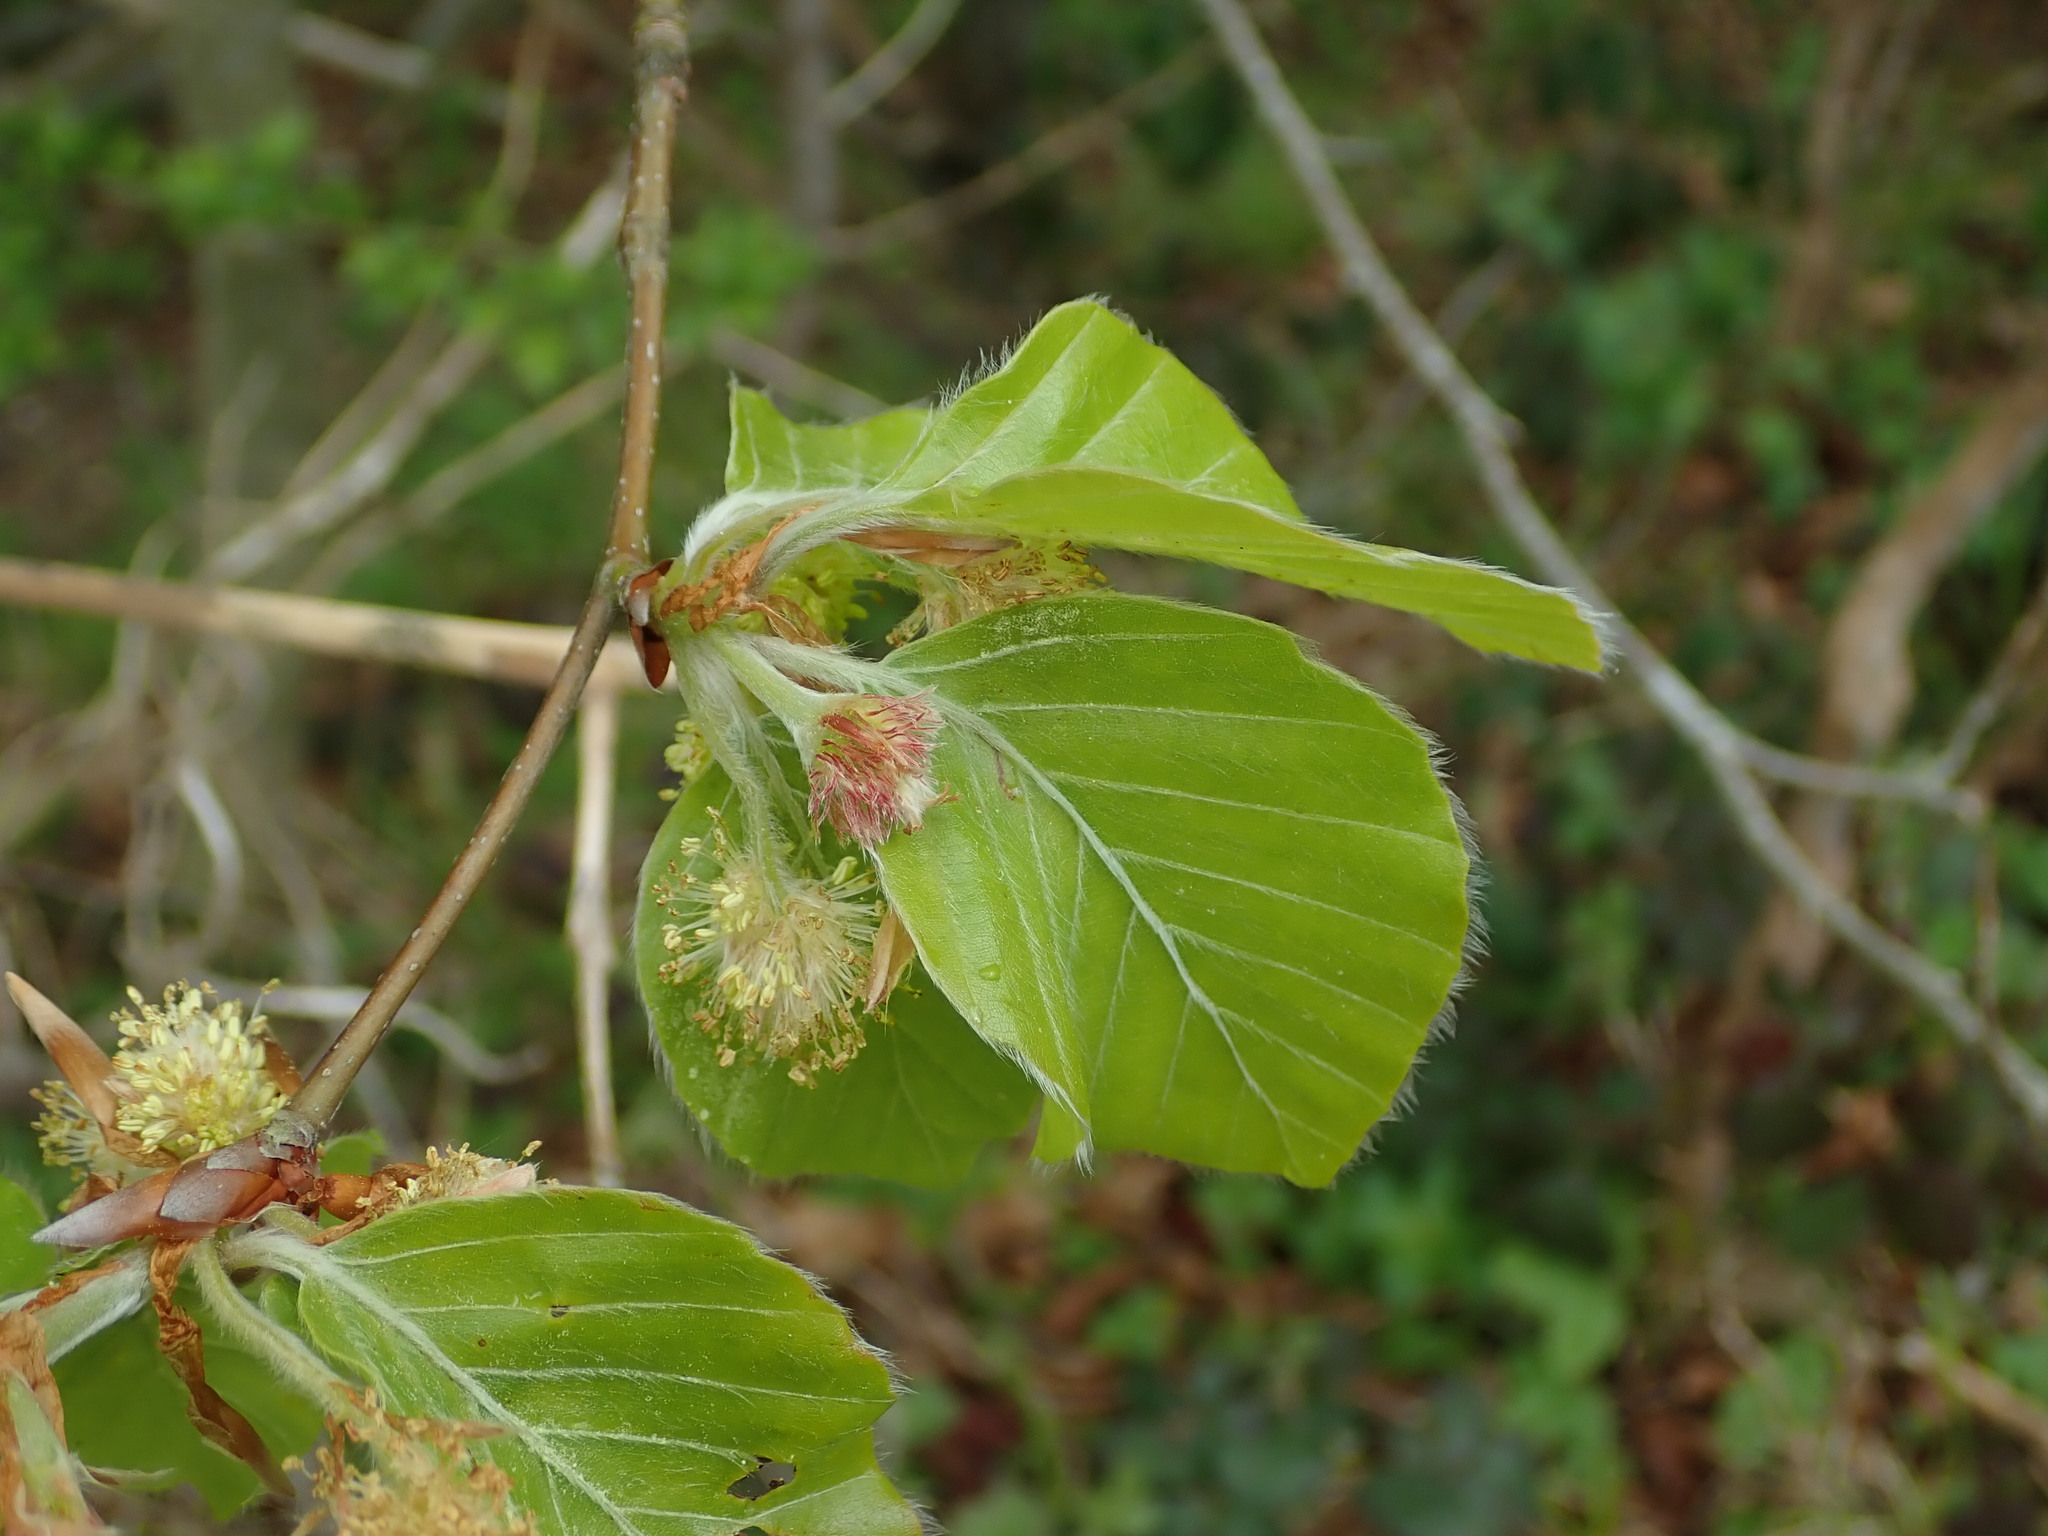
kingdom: Plantae
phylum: Tracheophyta
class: Magnoliopsida
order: Fagales
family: Fagaceae
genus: Fagus
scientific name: Fagus sylvatica
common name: Beech
